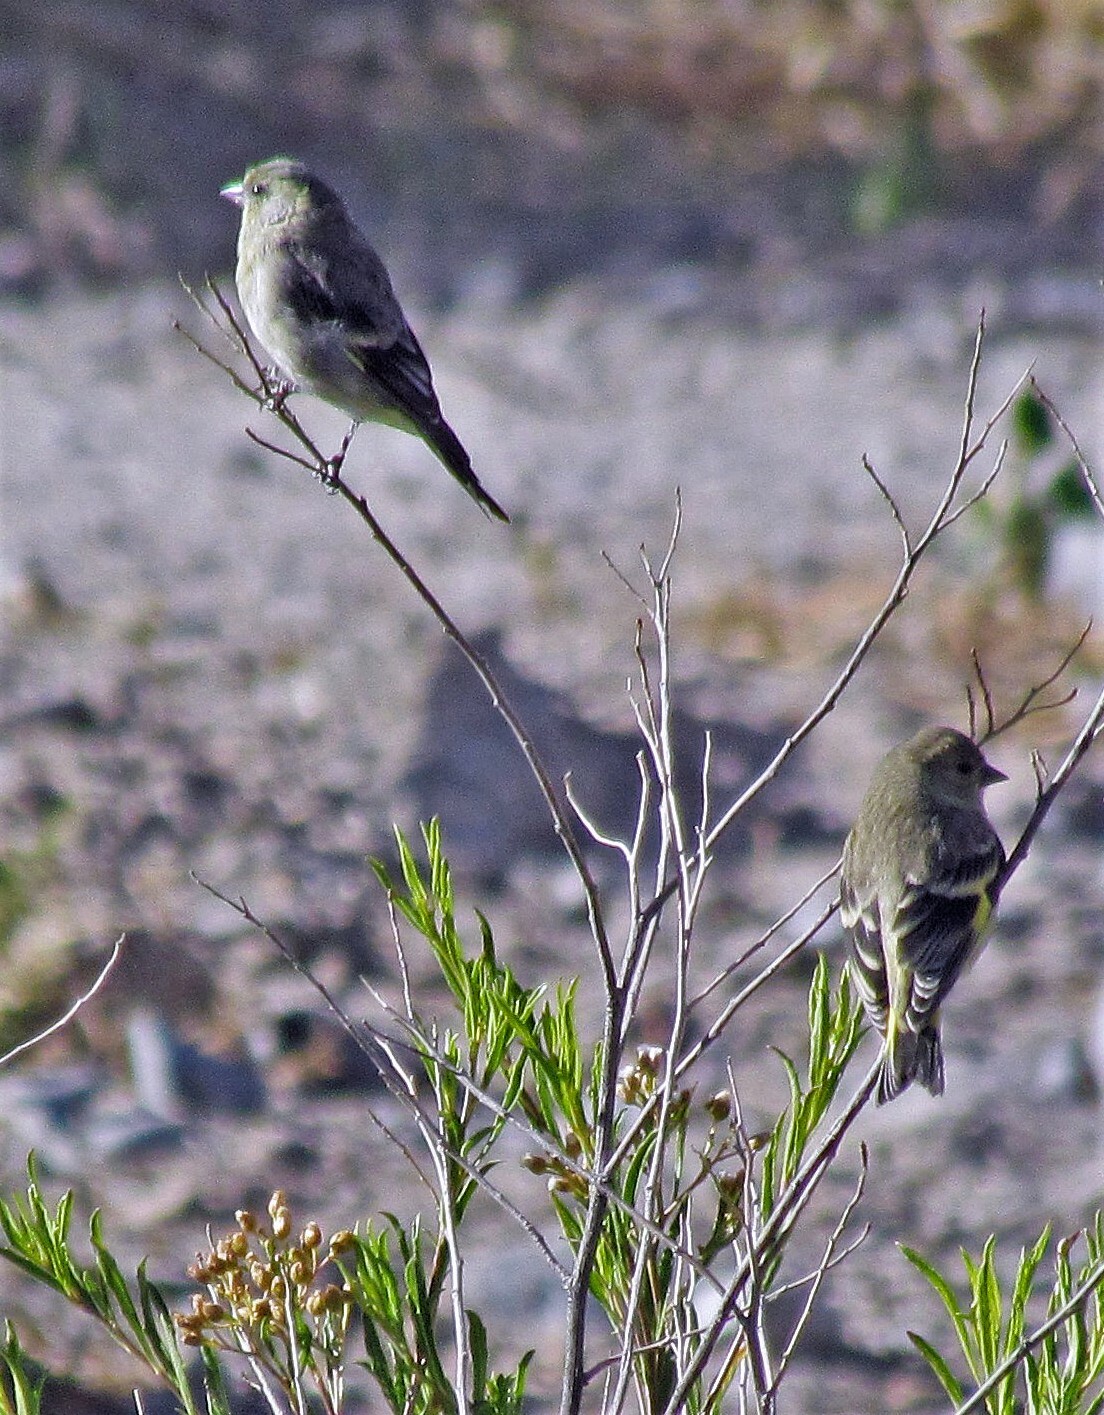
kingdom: Animalia
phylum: Chordata
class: Aves
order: Passeriformes
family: Fringillidae
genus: Spinus
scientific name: Spinus magellanicus
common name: Hooded siskin
